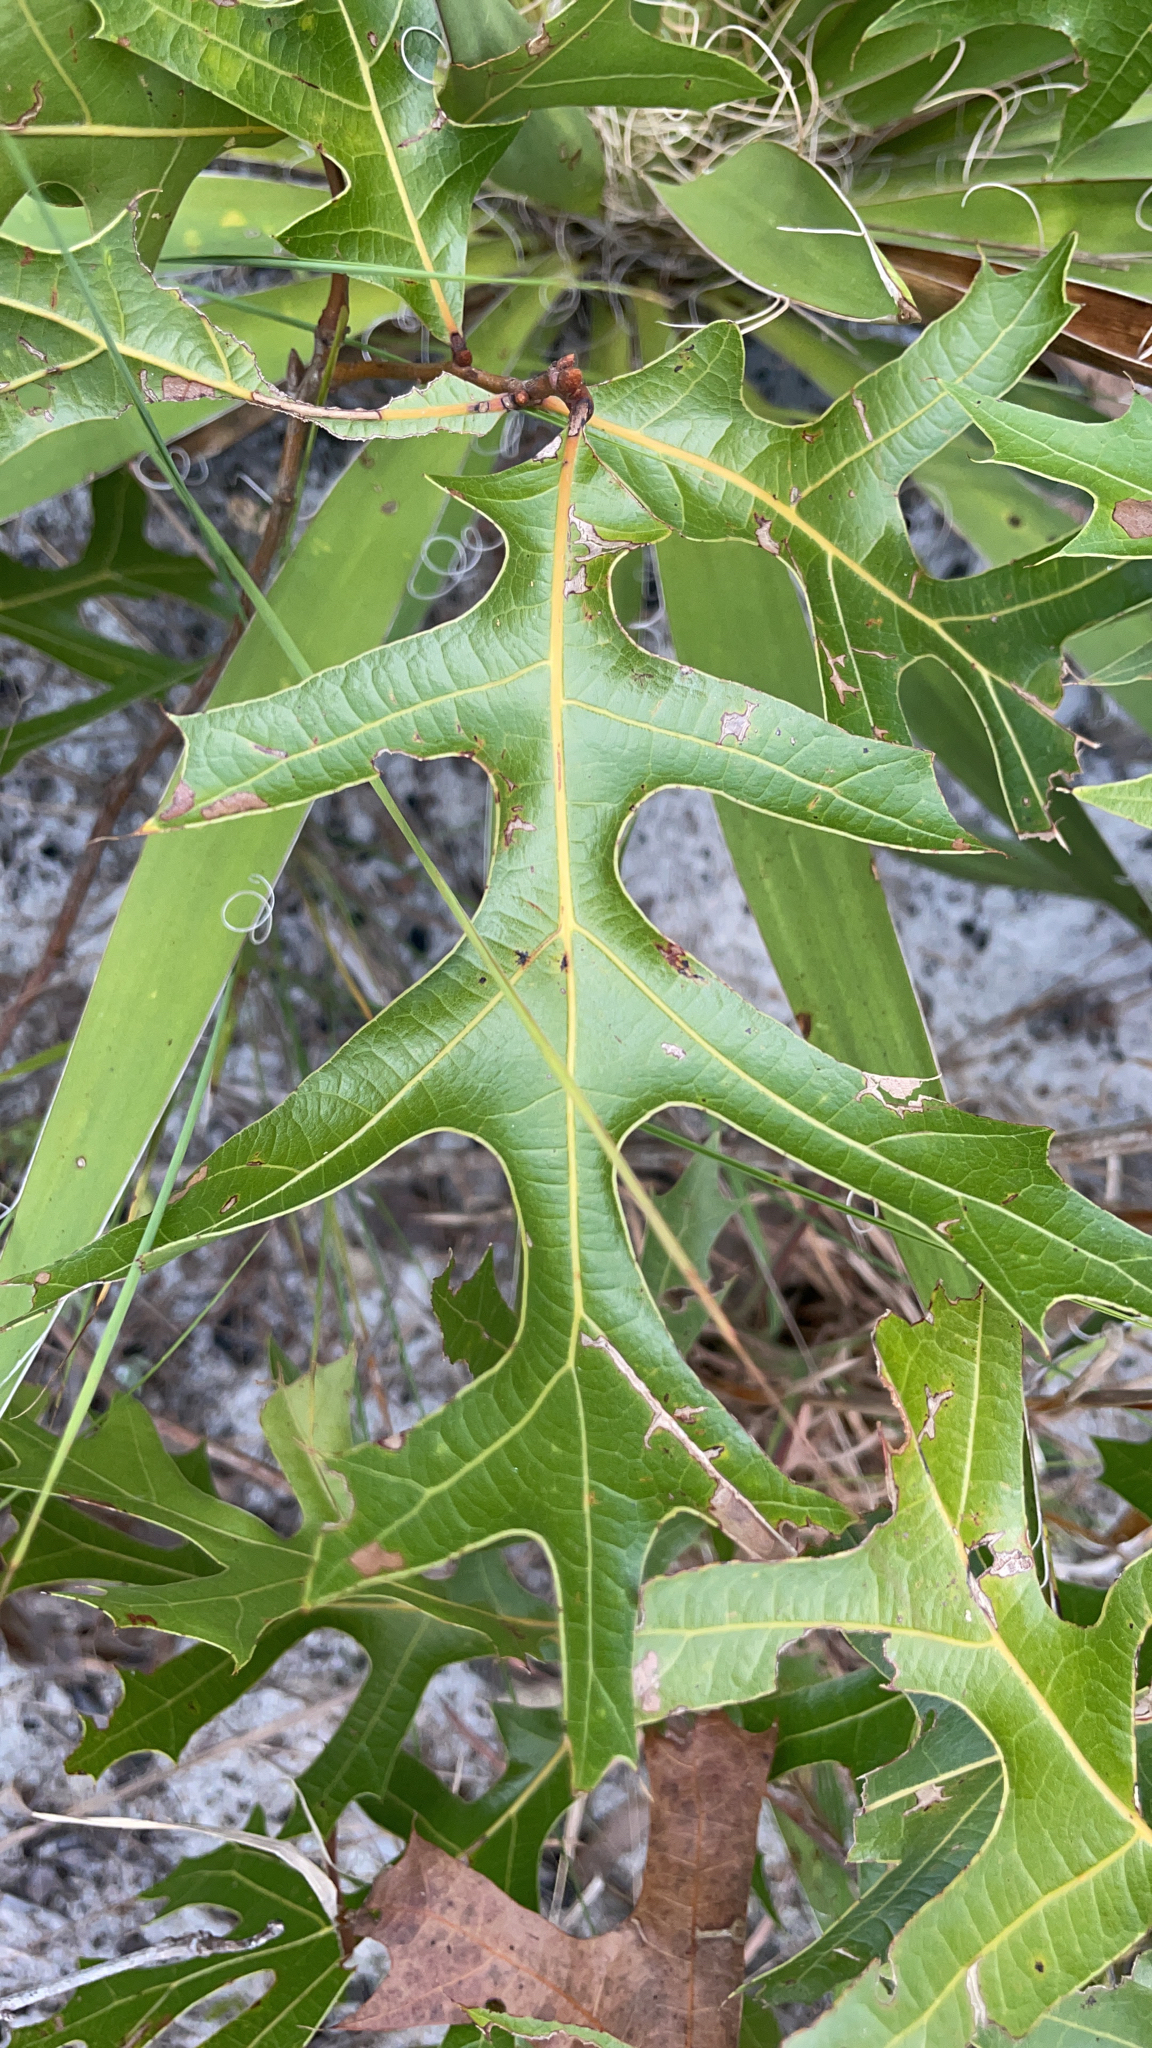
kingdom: Plantae
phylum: Tracheophyta
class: Magnoliopsida
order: Fagales
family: Fagaceae
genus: Quercus
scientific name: Quercus laevis
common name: Turkey oak
